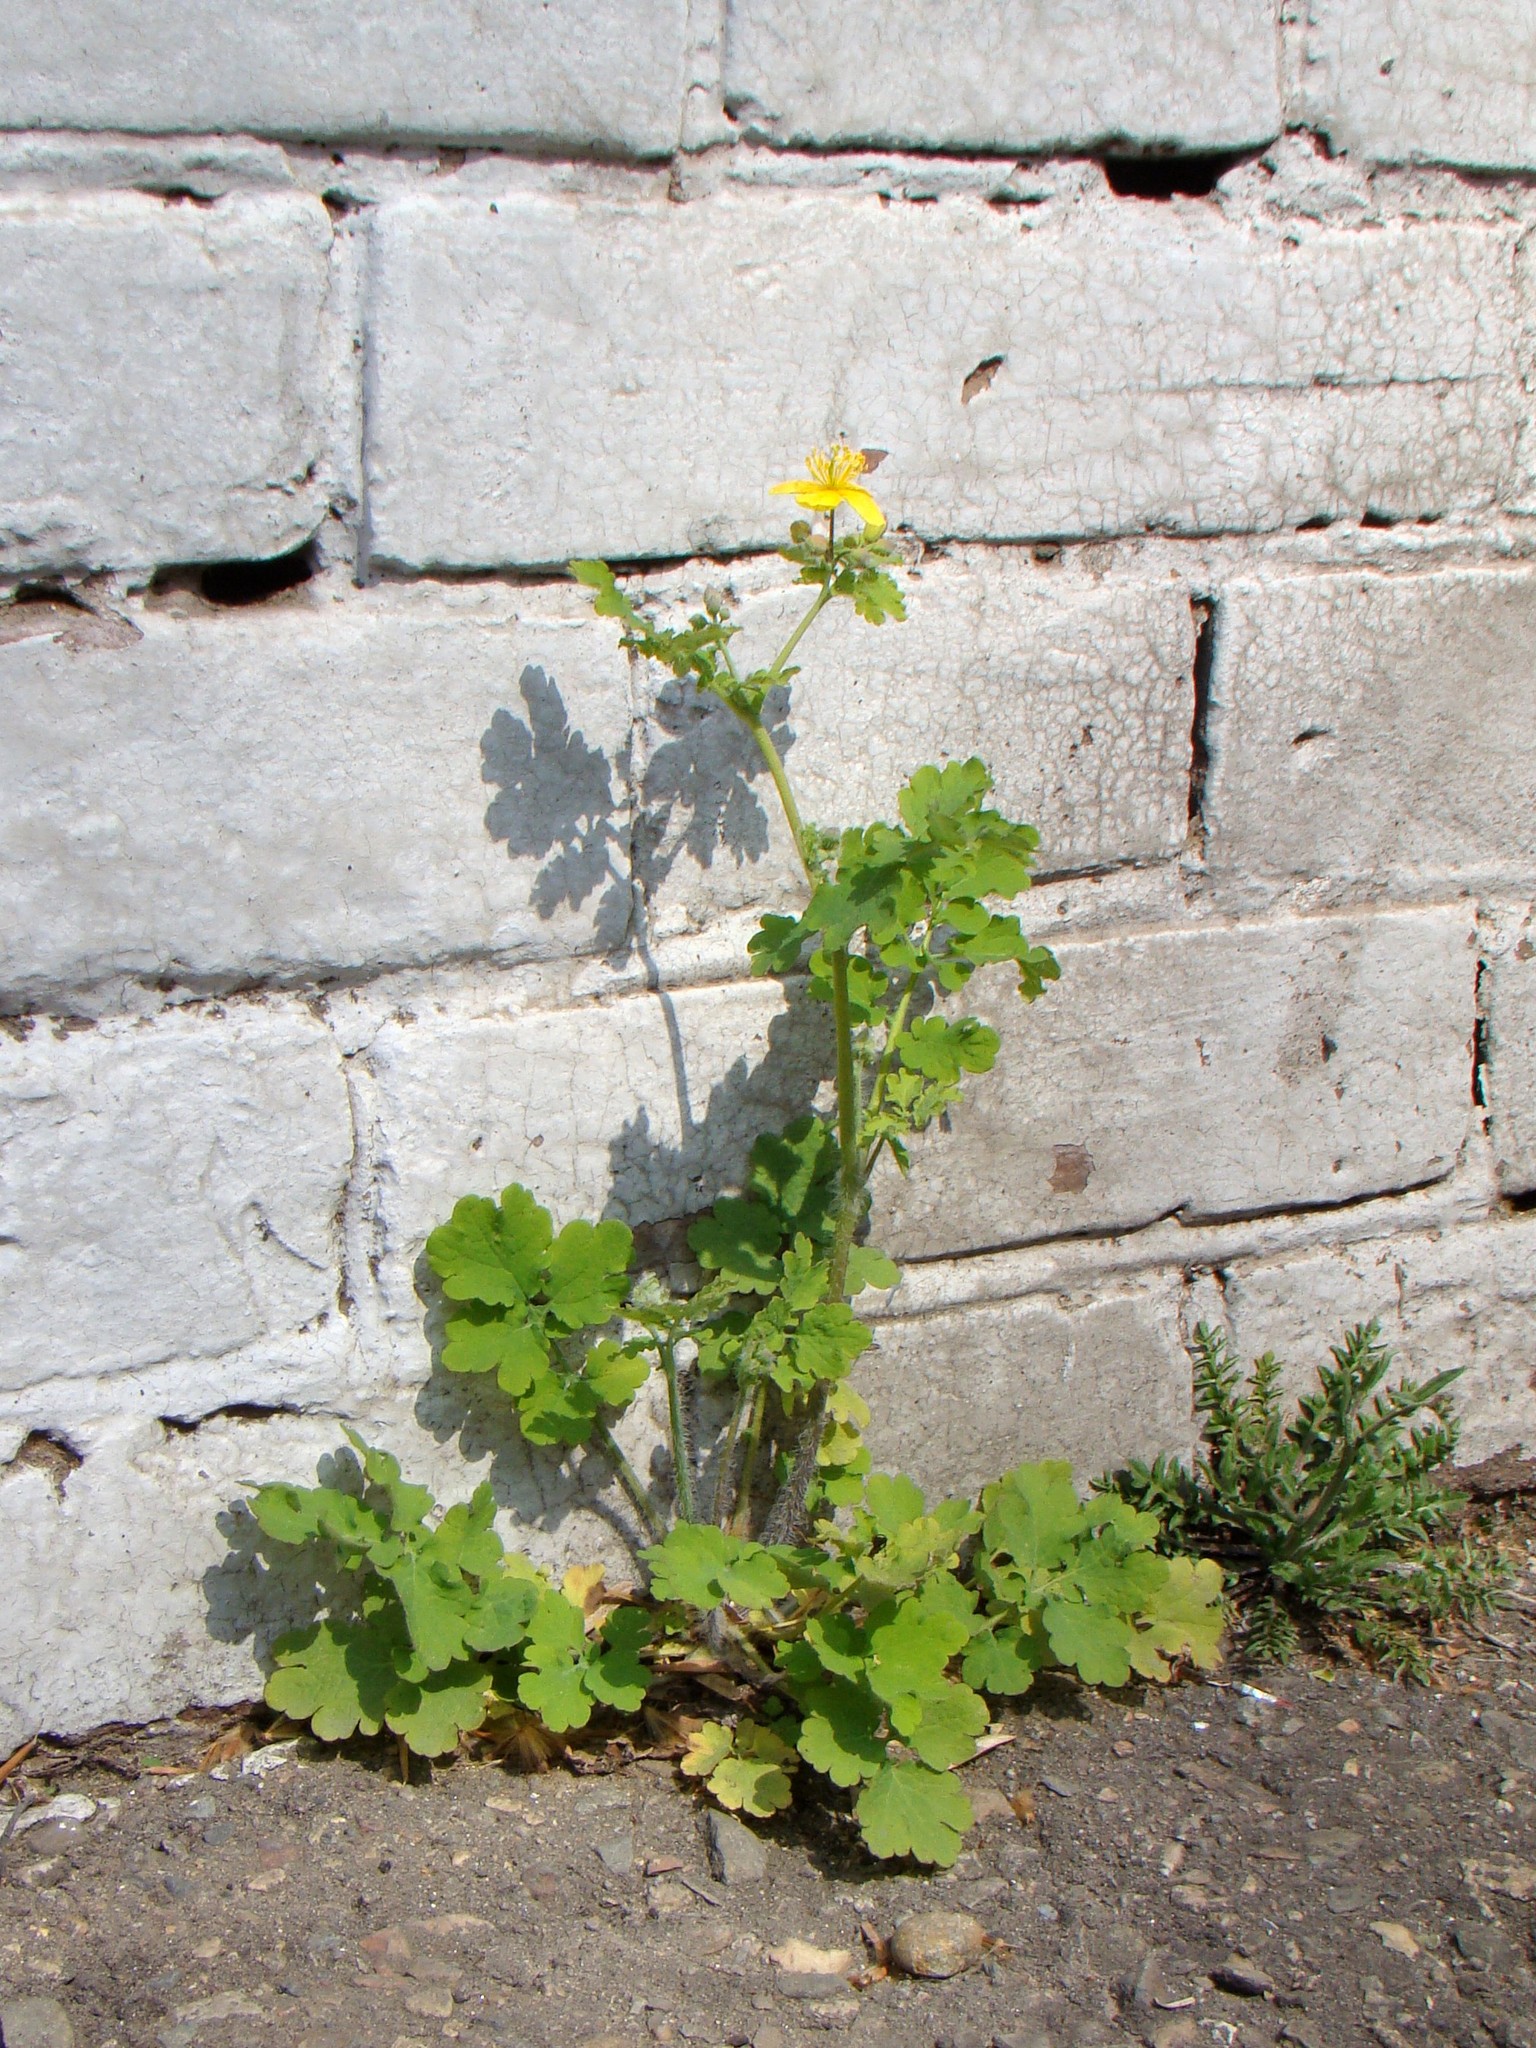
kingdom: Plantae
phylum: Tracheophyta
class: Magnoliopsida
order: Ranunculales
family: Papaveraceae
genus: Chelidonium
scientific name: Chelidonium majus
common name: Greater celandine
